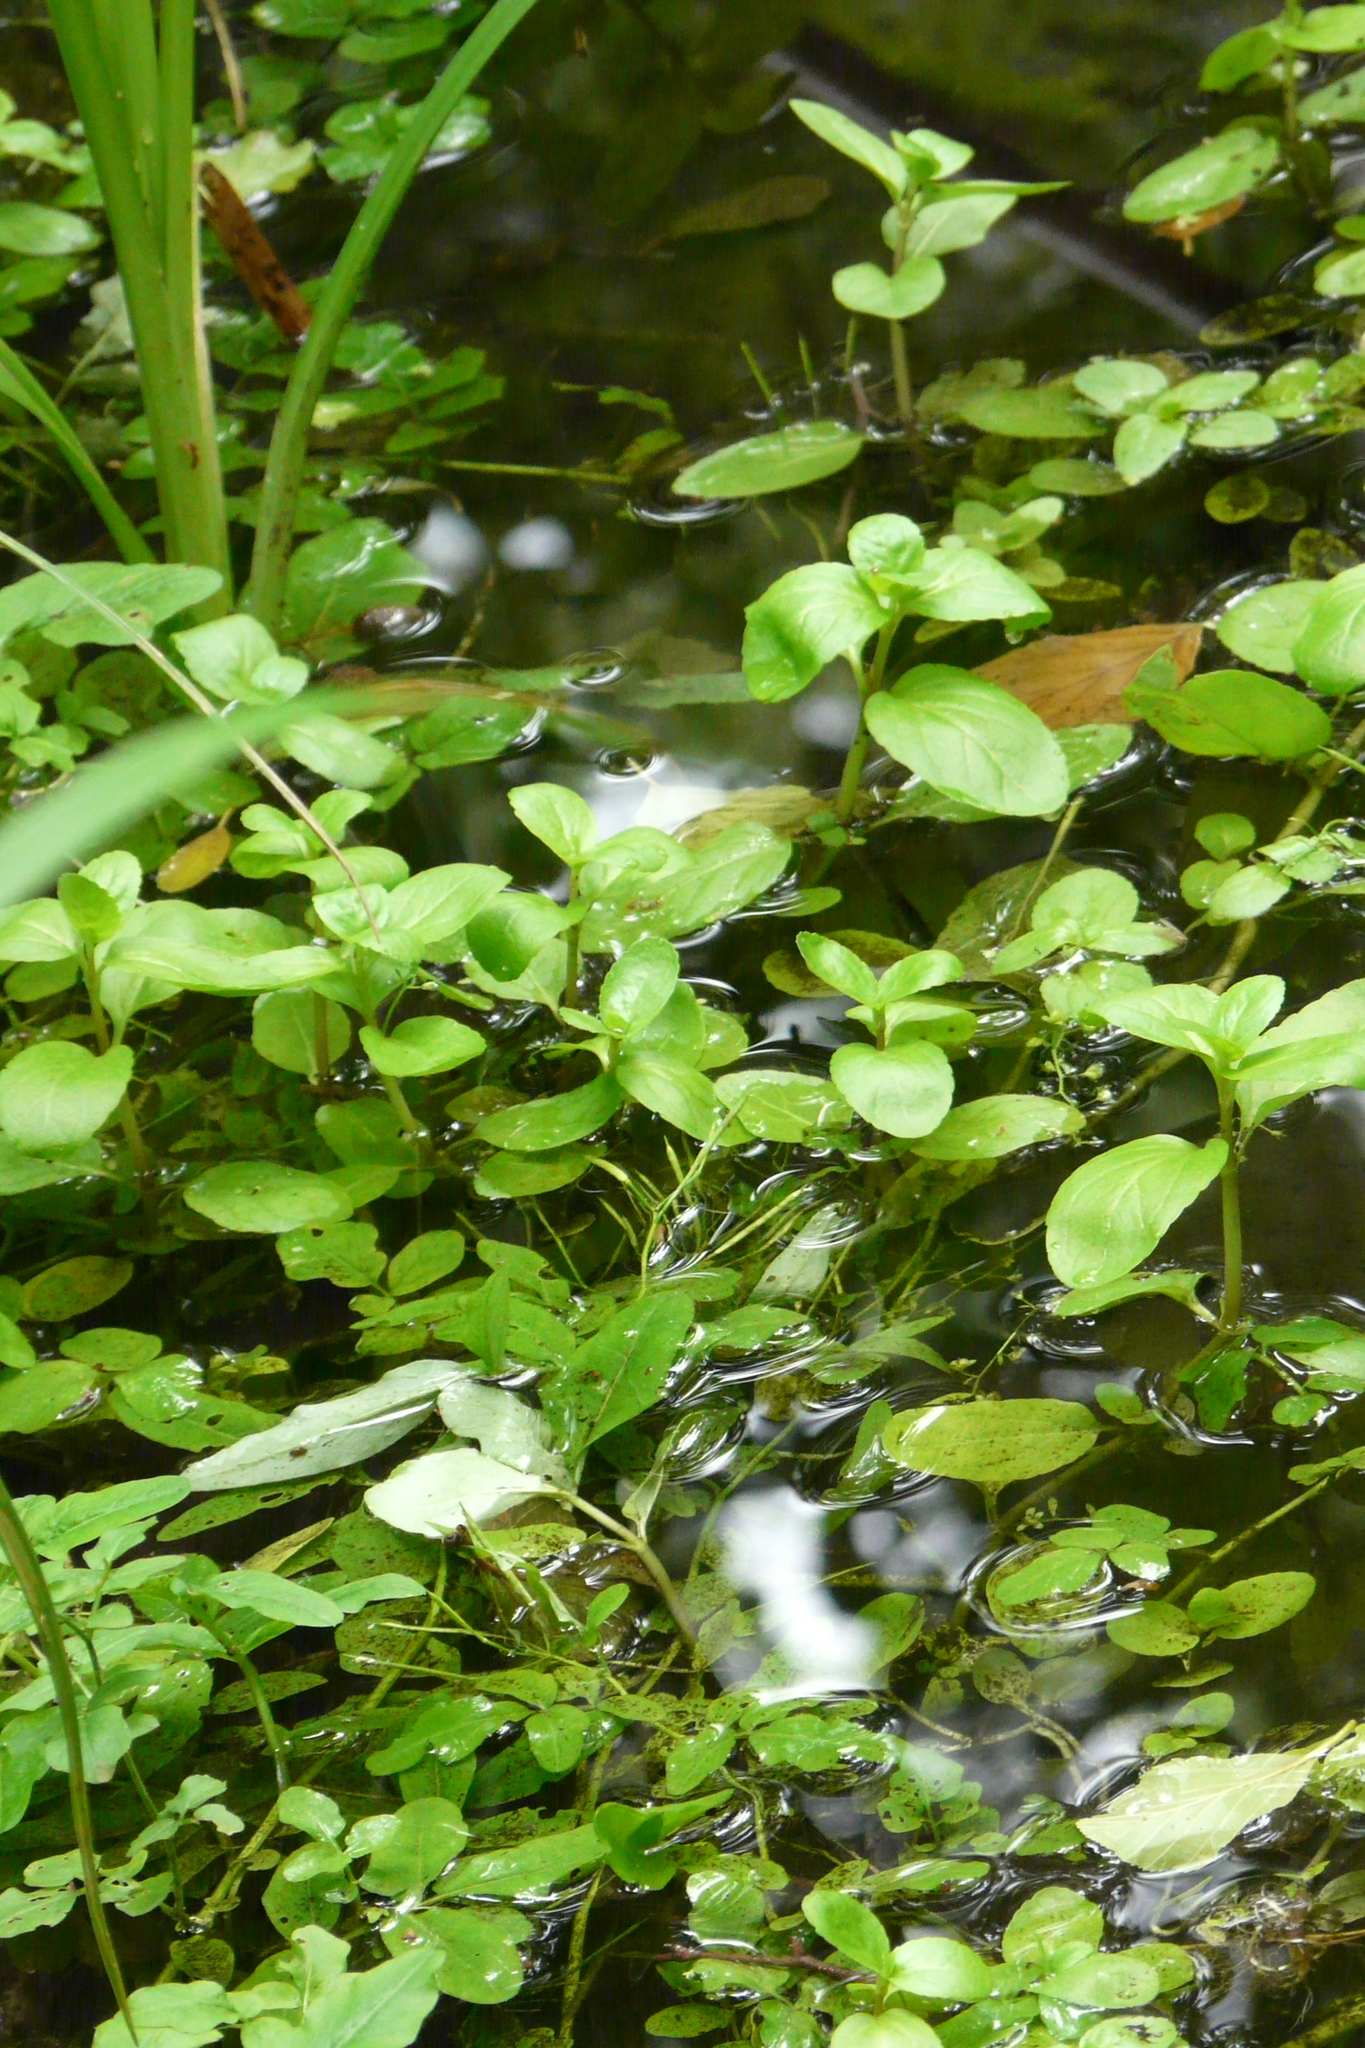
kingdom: Plantae
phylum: Tracheophyta
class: Magnoliopsida
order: Lamiales
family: Plantaginaceae
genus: Veronica
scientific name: Veronica beccabunga
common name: Brooklime
